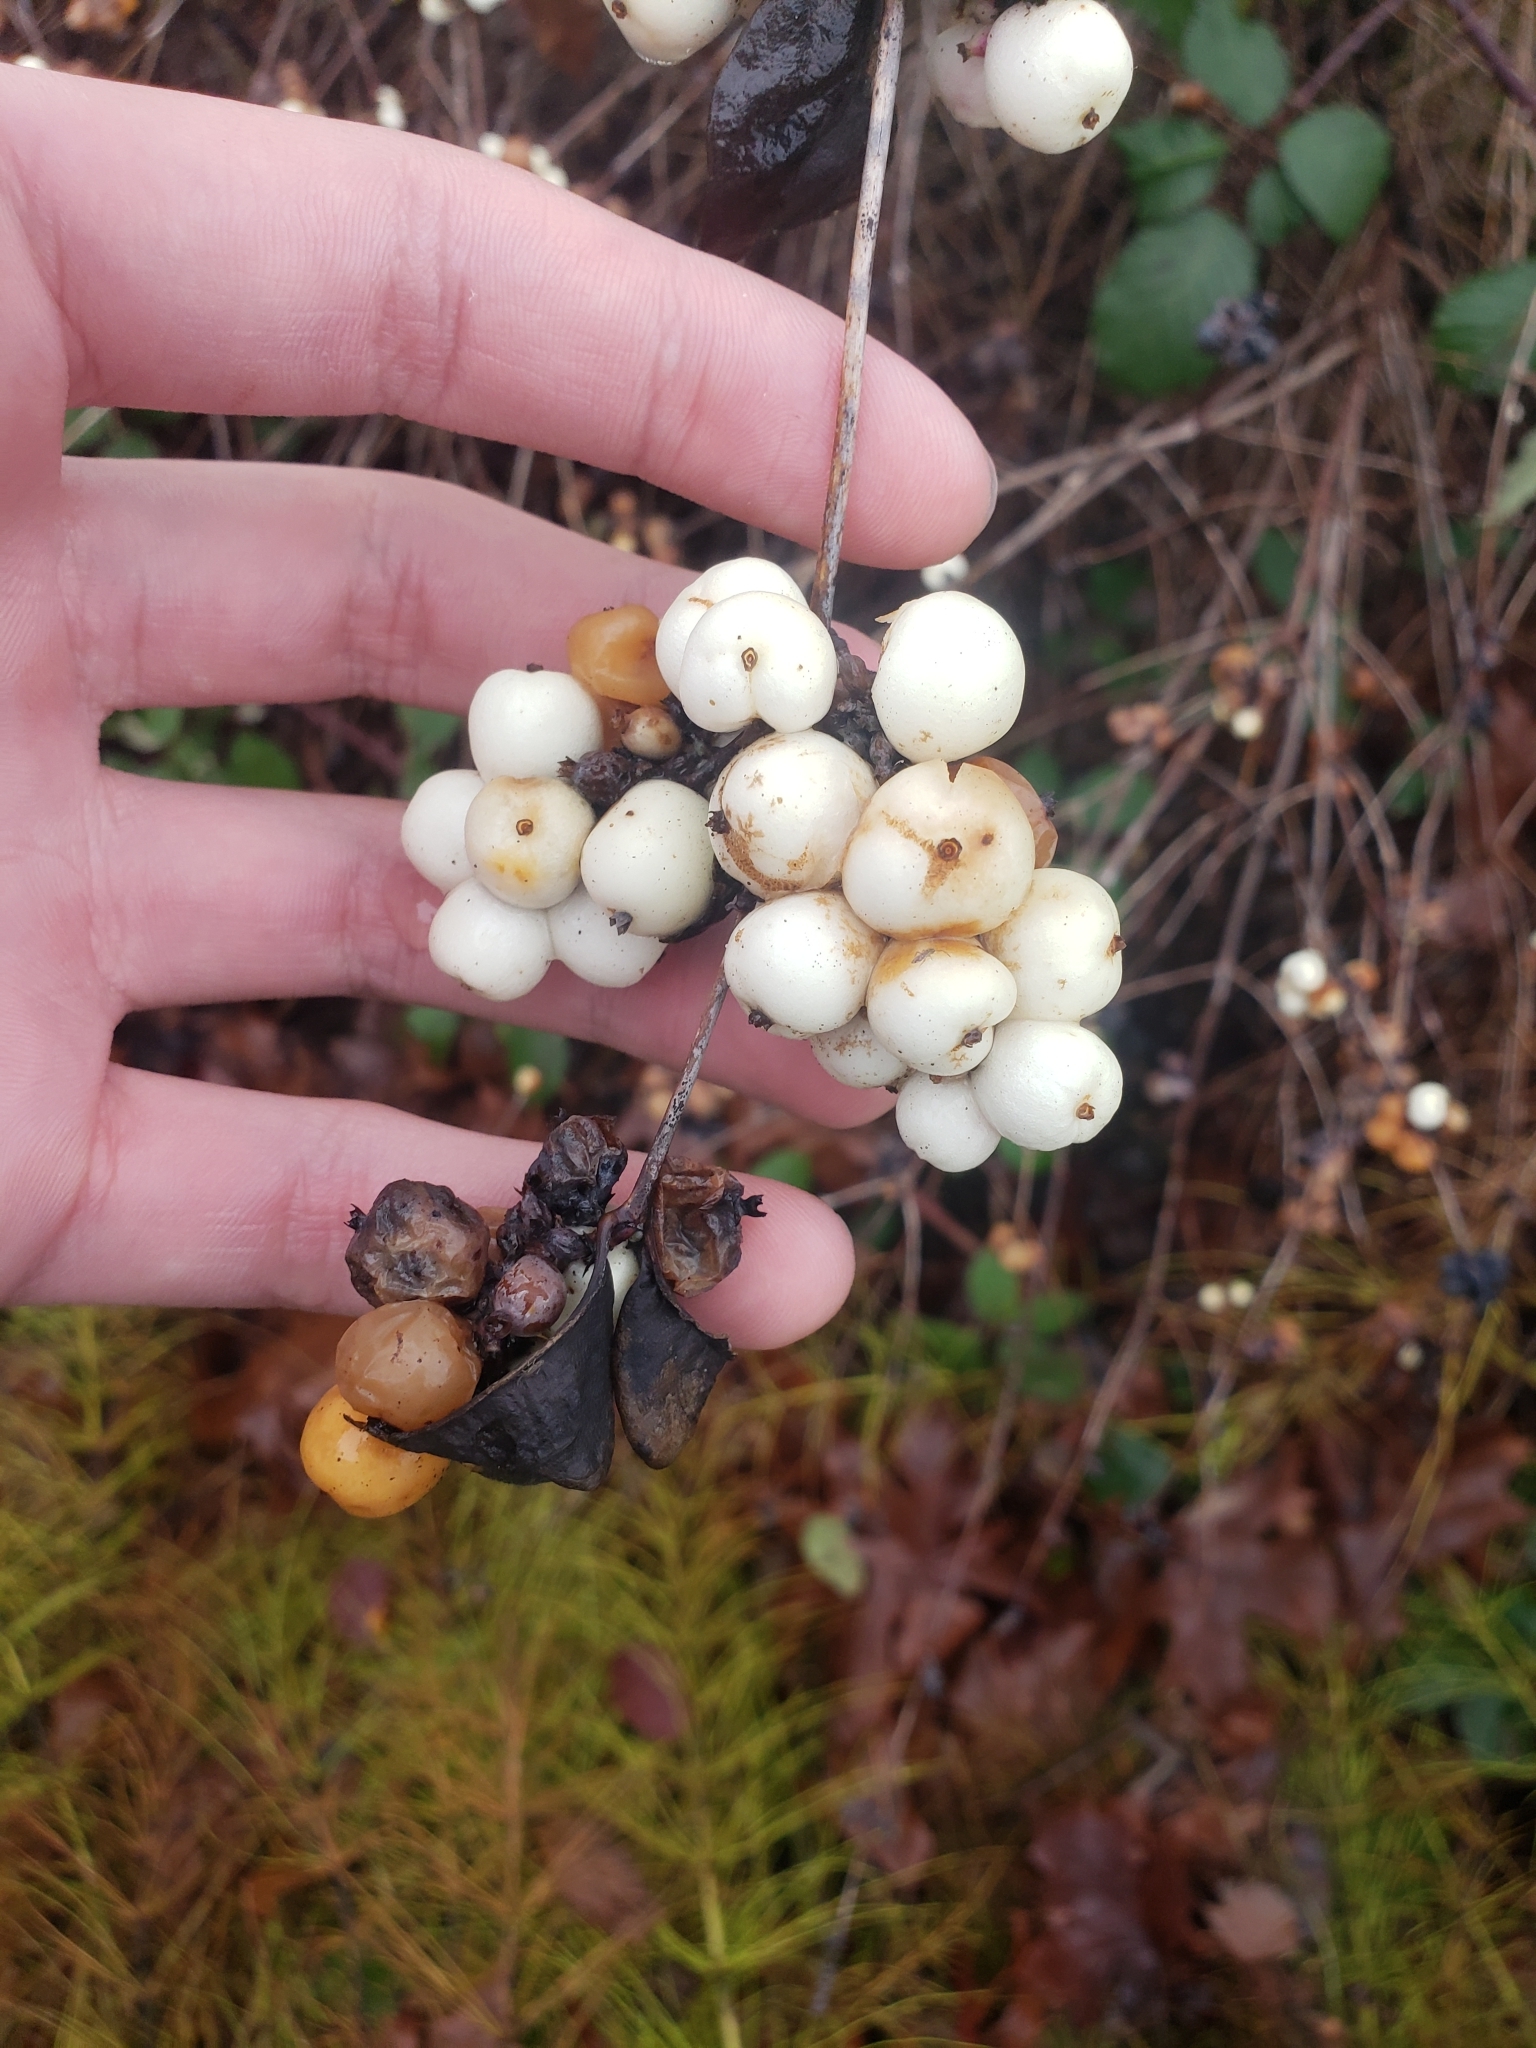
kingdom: Plantae
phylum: Tracheophyta
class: Magnoliopsida
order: Dipsacales
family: Caprifoliaceae
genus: Symphoricarpos
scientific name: Symphoricarpos albus
